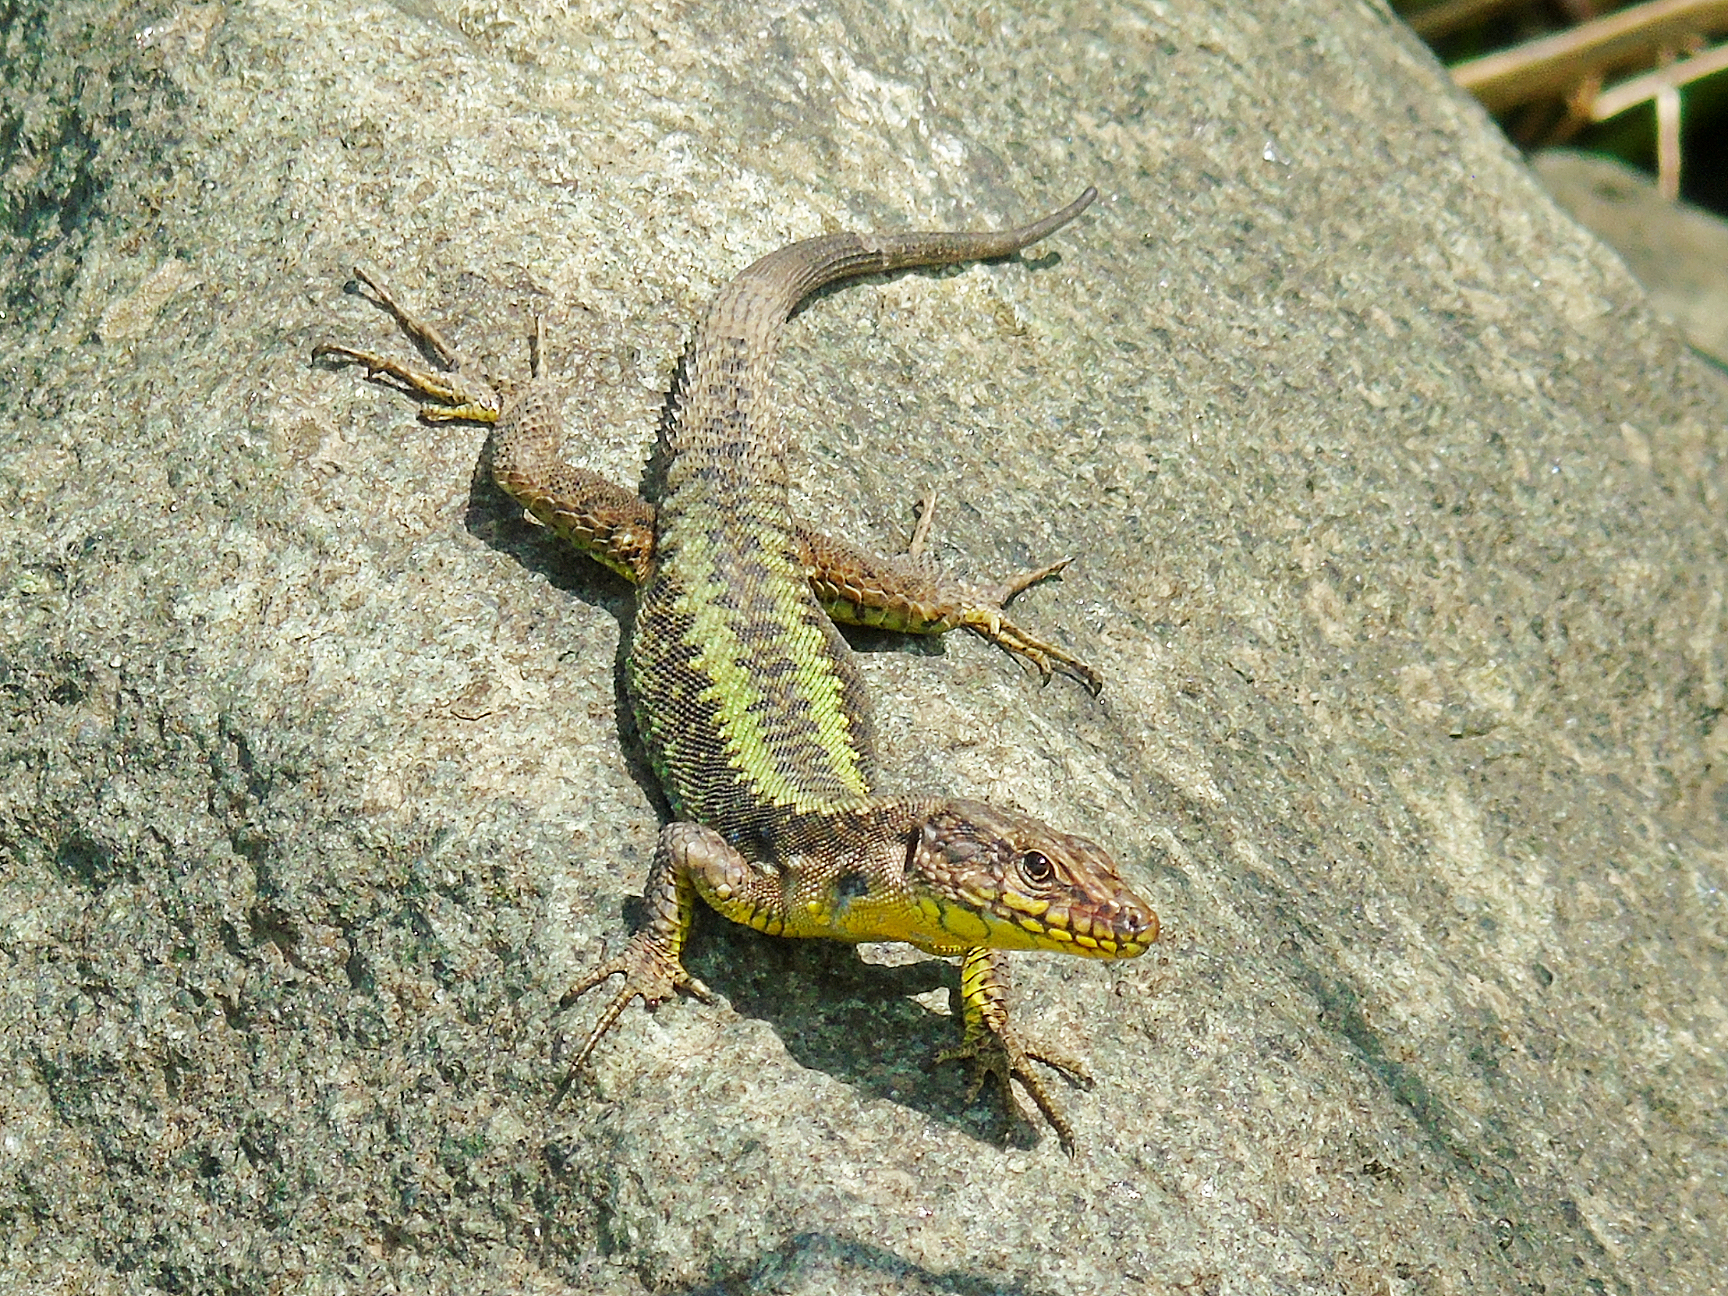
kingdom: Animalia
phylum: Chordata
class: Squamata
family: Lacertidae
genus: Darevskia
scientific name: Darevskia rudis
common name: Spiny-tailed lizard
